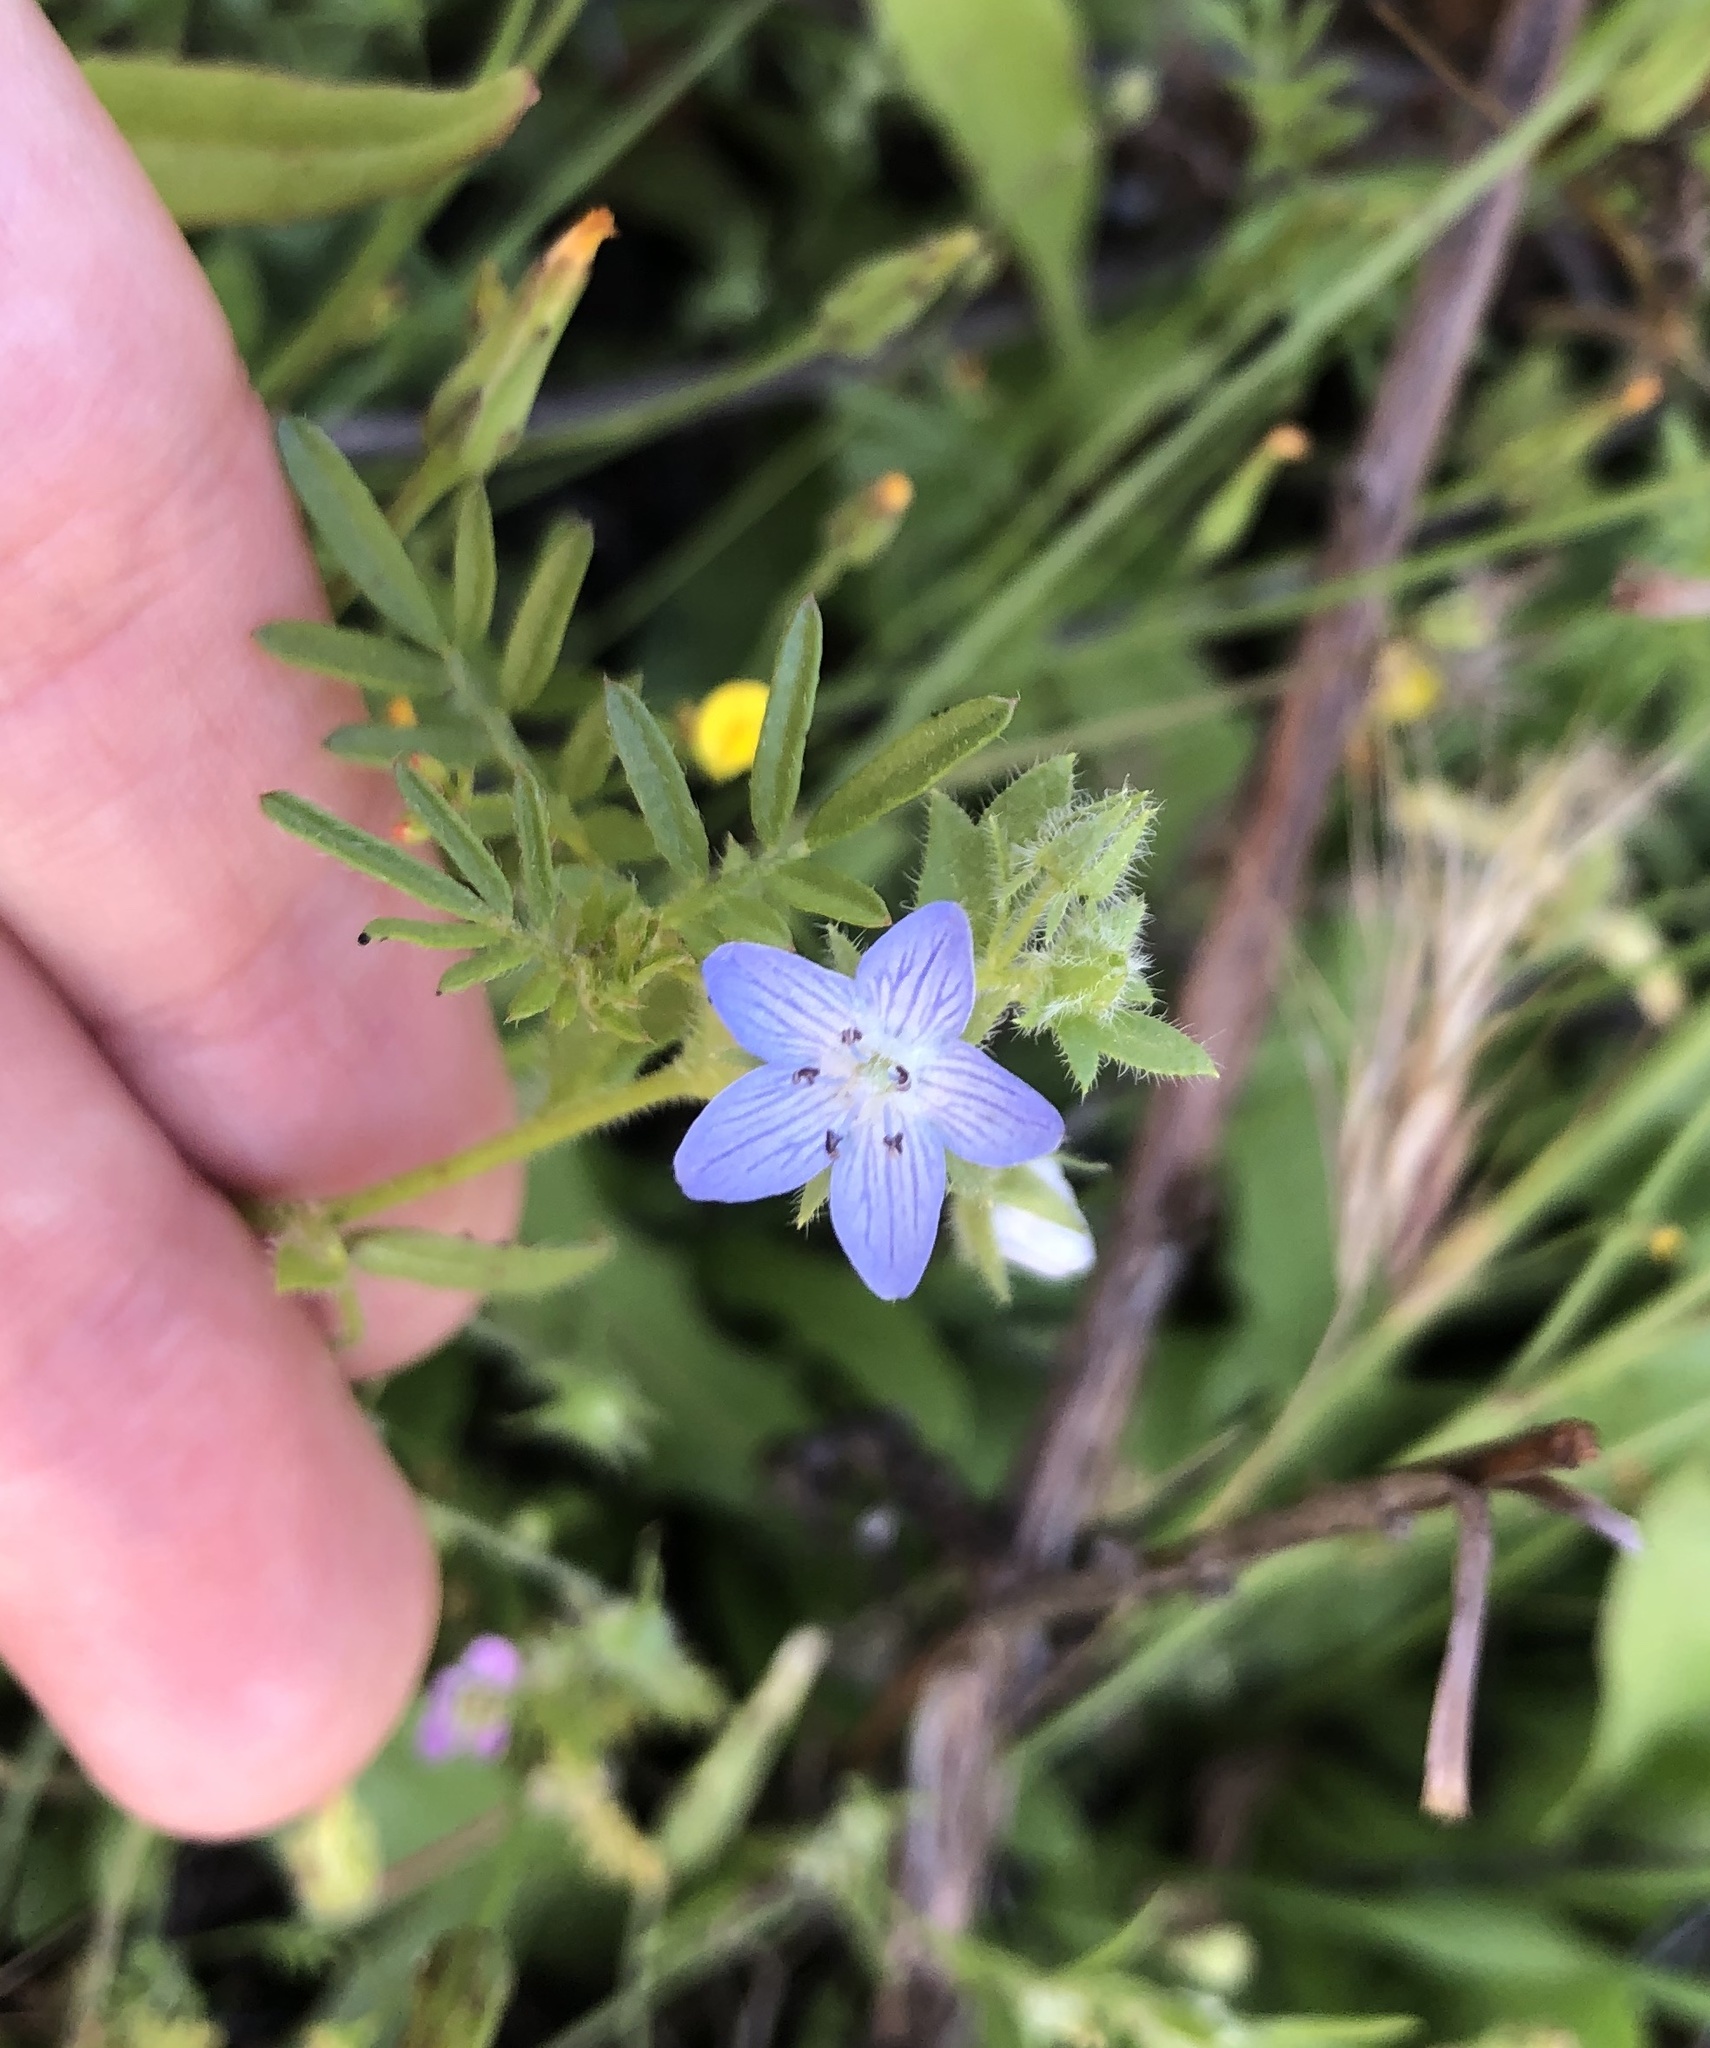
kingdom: Plantae
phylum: Tracheophyta
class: Magnoliopsida
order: Boraginales
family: Hydrophyllaceae
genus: Nemophila
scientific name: Nemophila menziesii
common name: Baby's-blue-eyes
